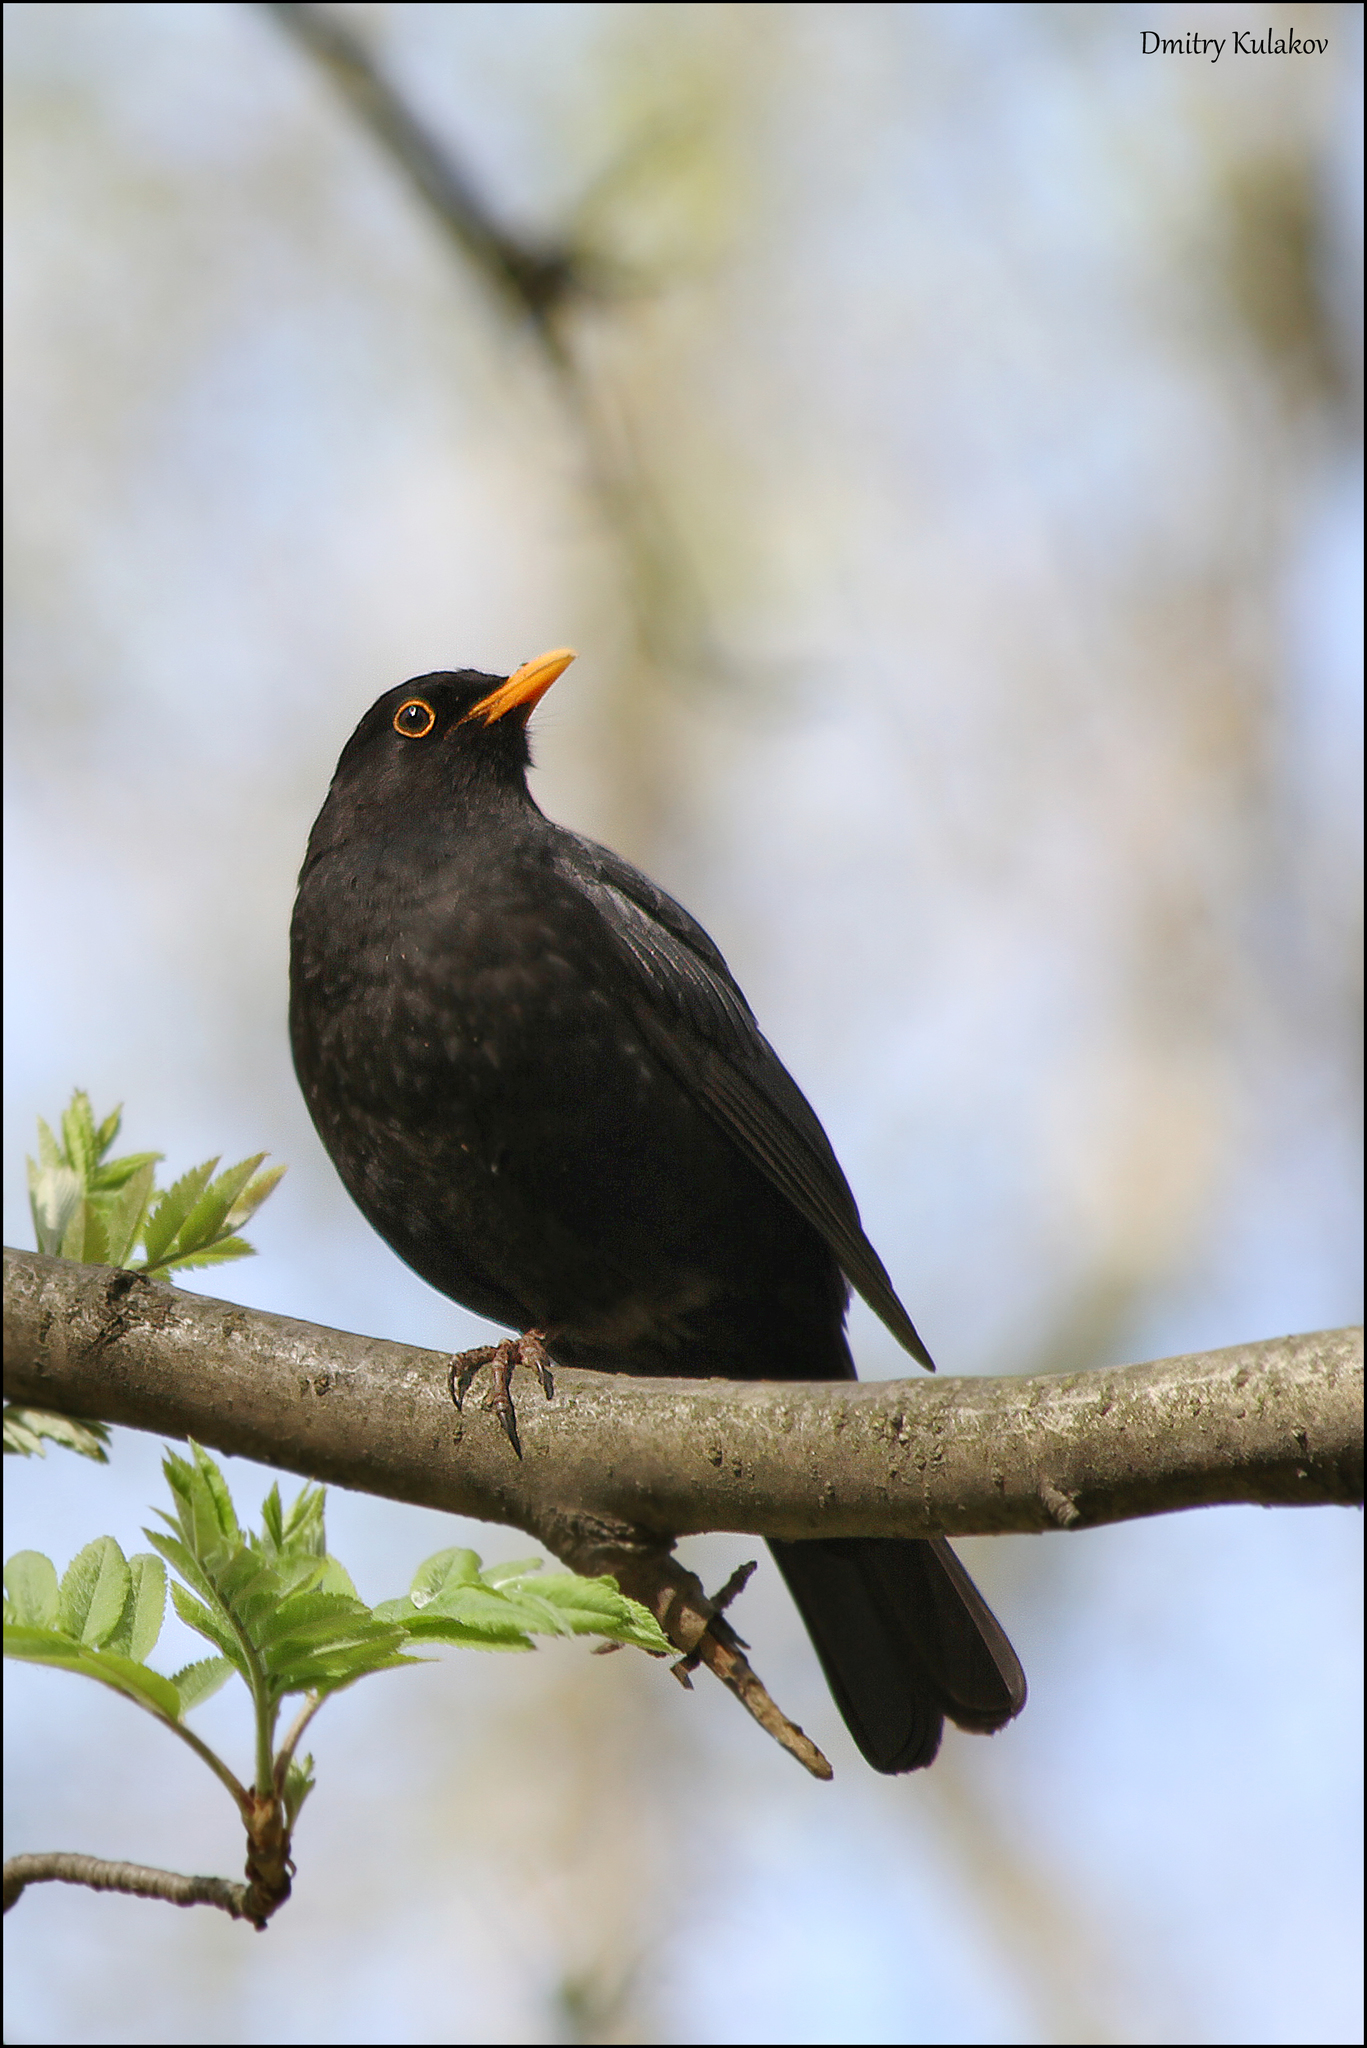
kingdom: Animalia
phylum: Chordata
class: Aves
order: Passeriformes
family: Turdidae
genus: Turdus
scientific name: Turdus merula
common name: Common blackbird
